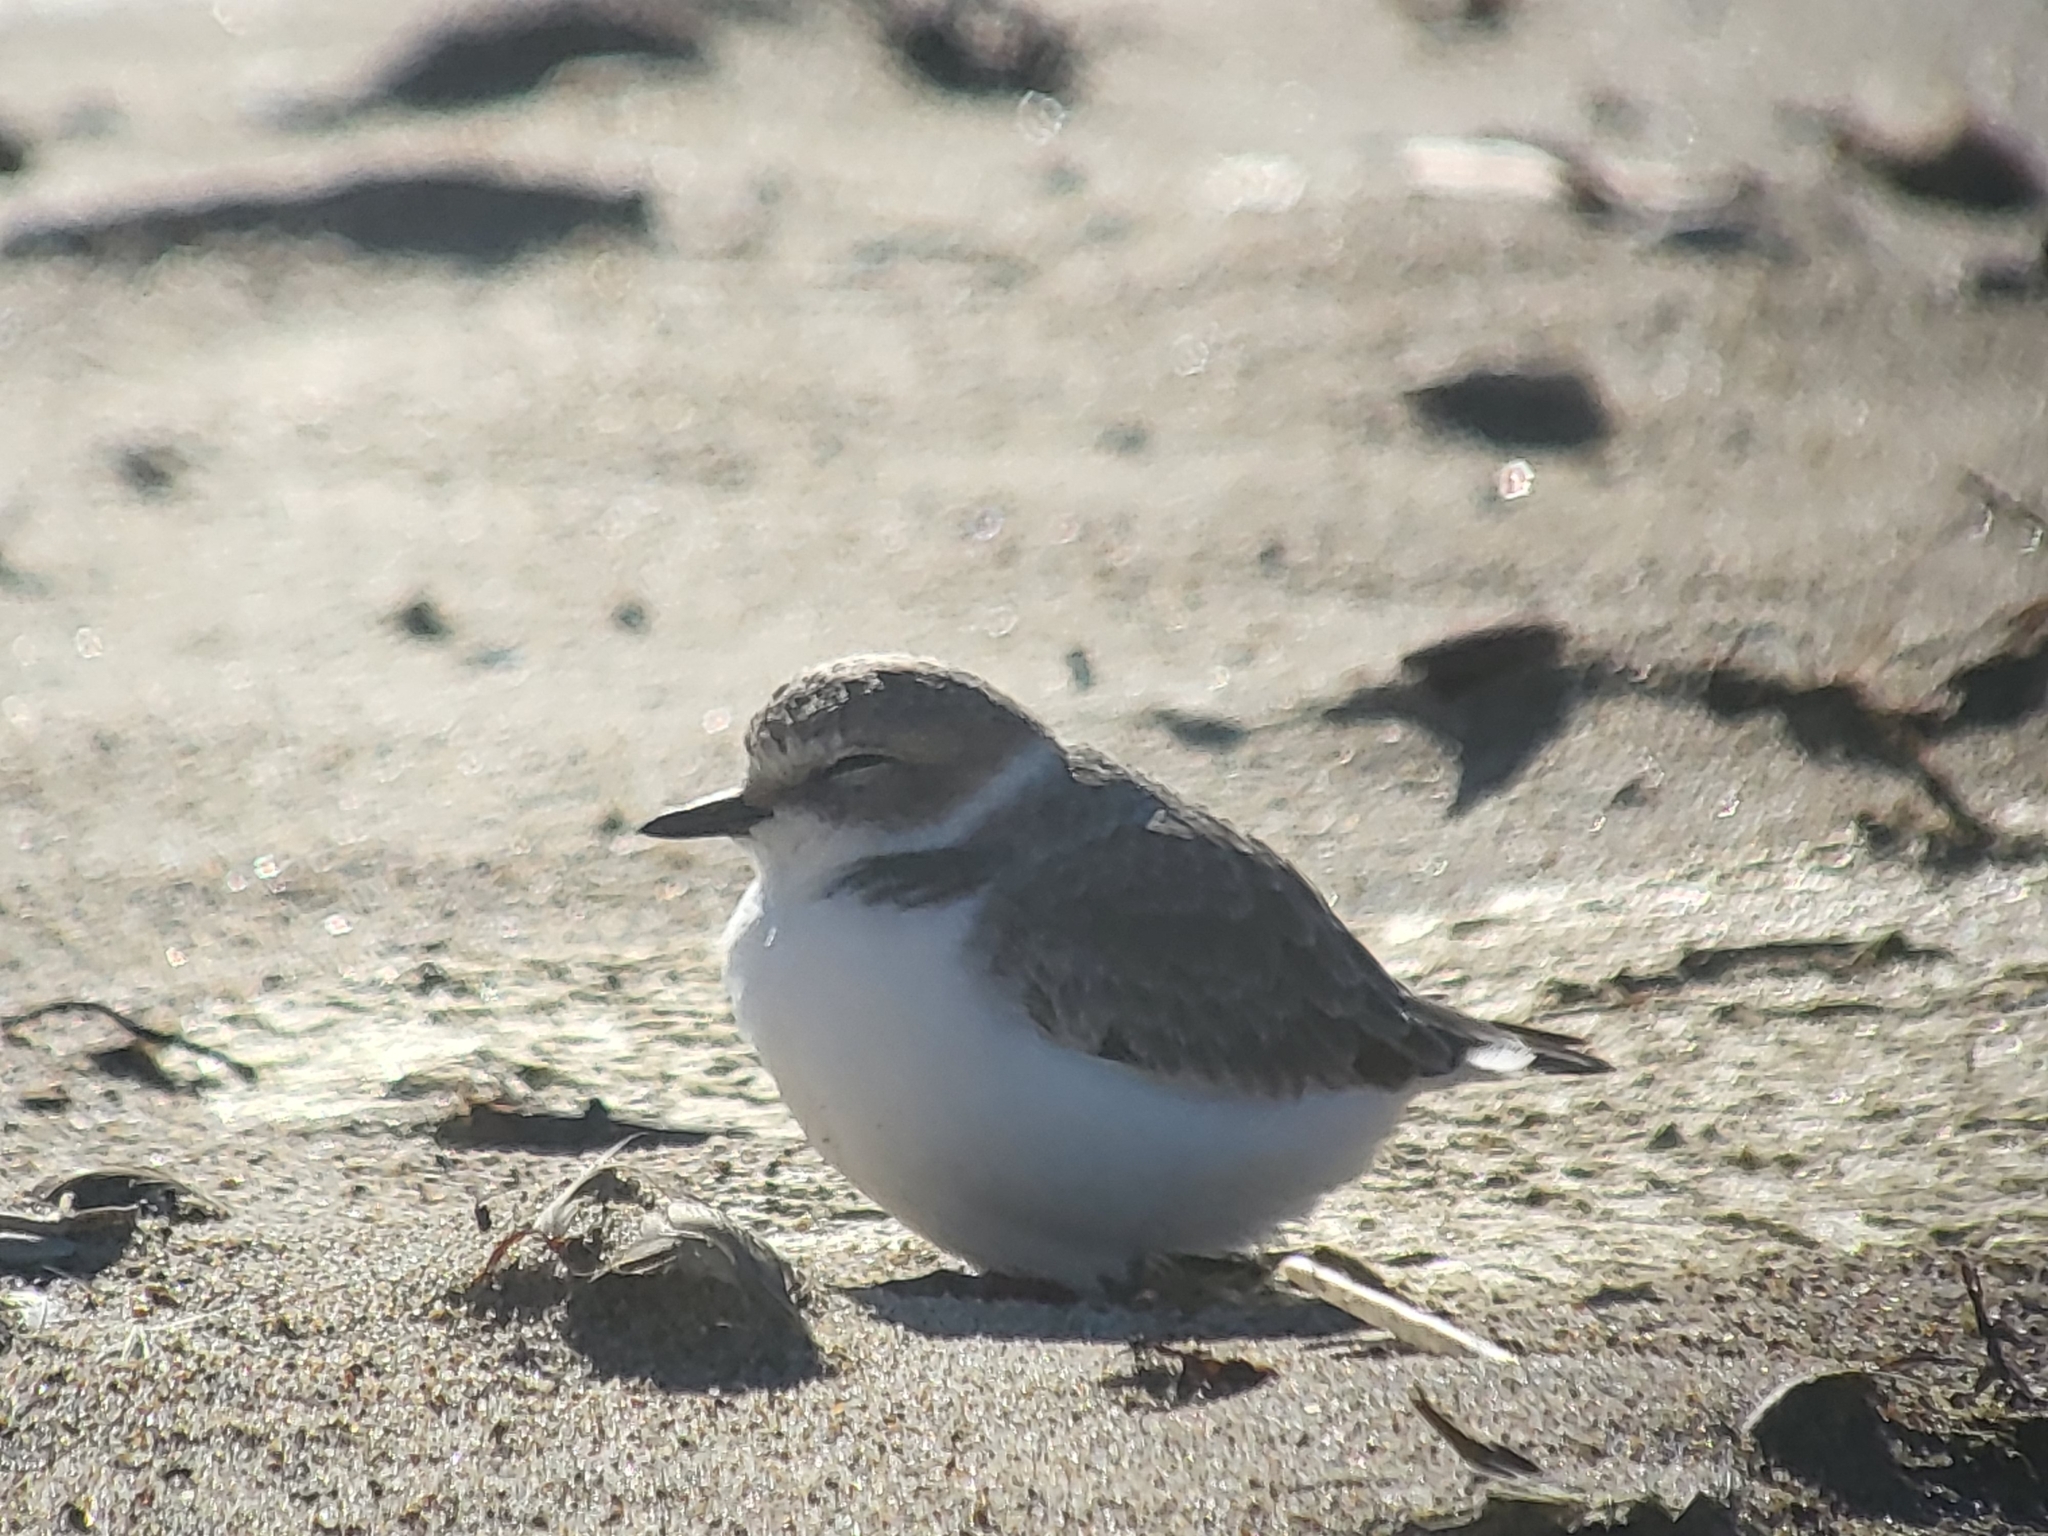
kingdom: Animalia
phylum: Chordata
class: Aves
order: Charadriiformes
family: Charadriidae
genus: Anarhynchus
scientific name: Anarhynchus
